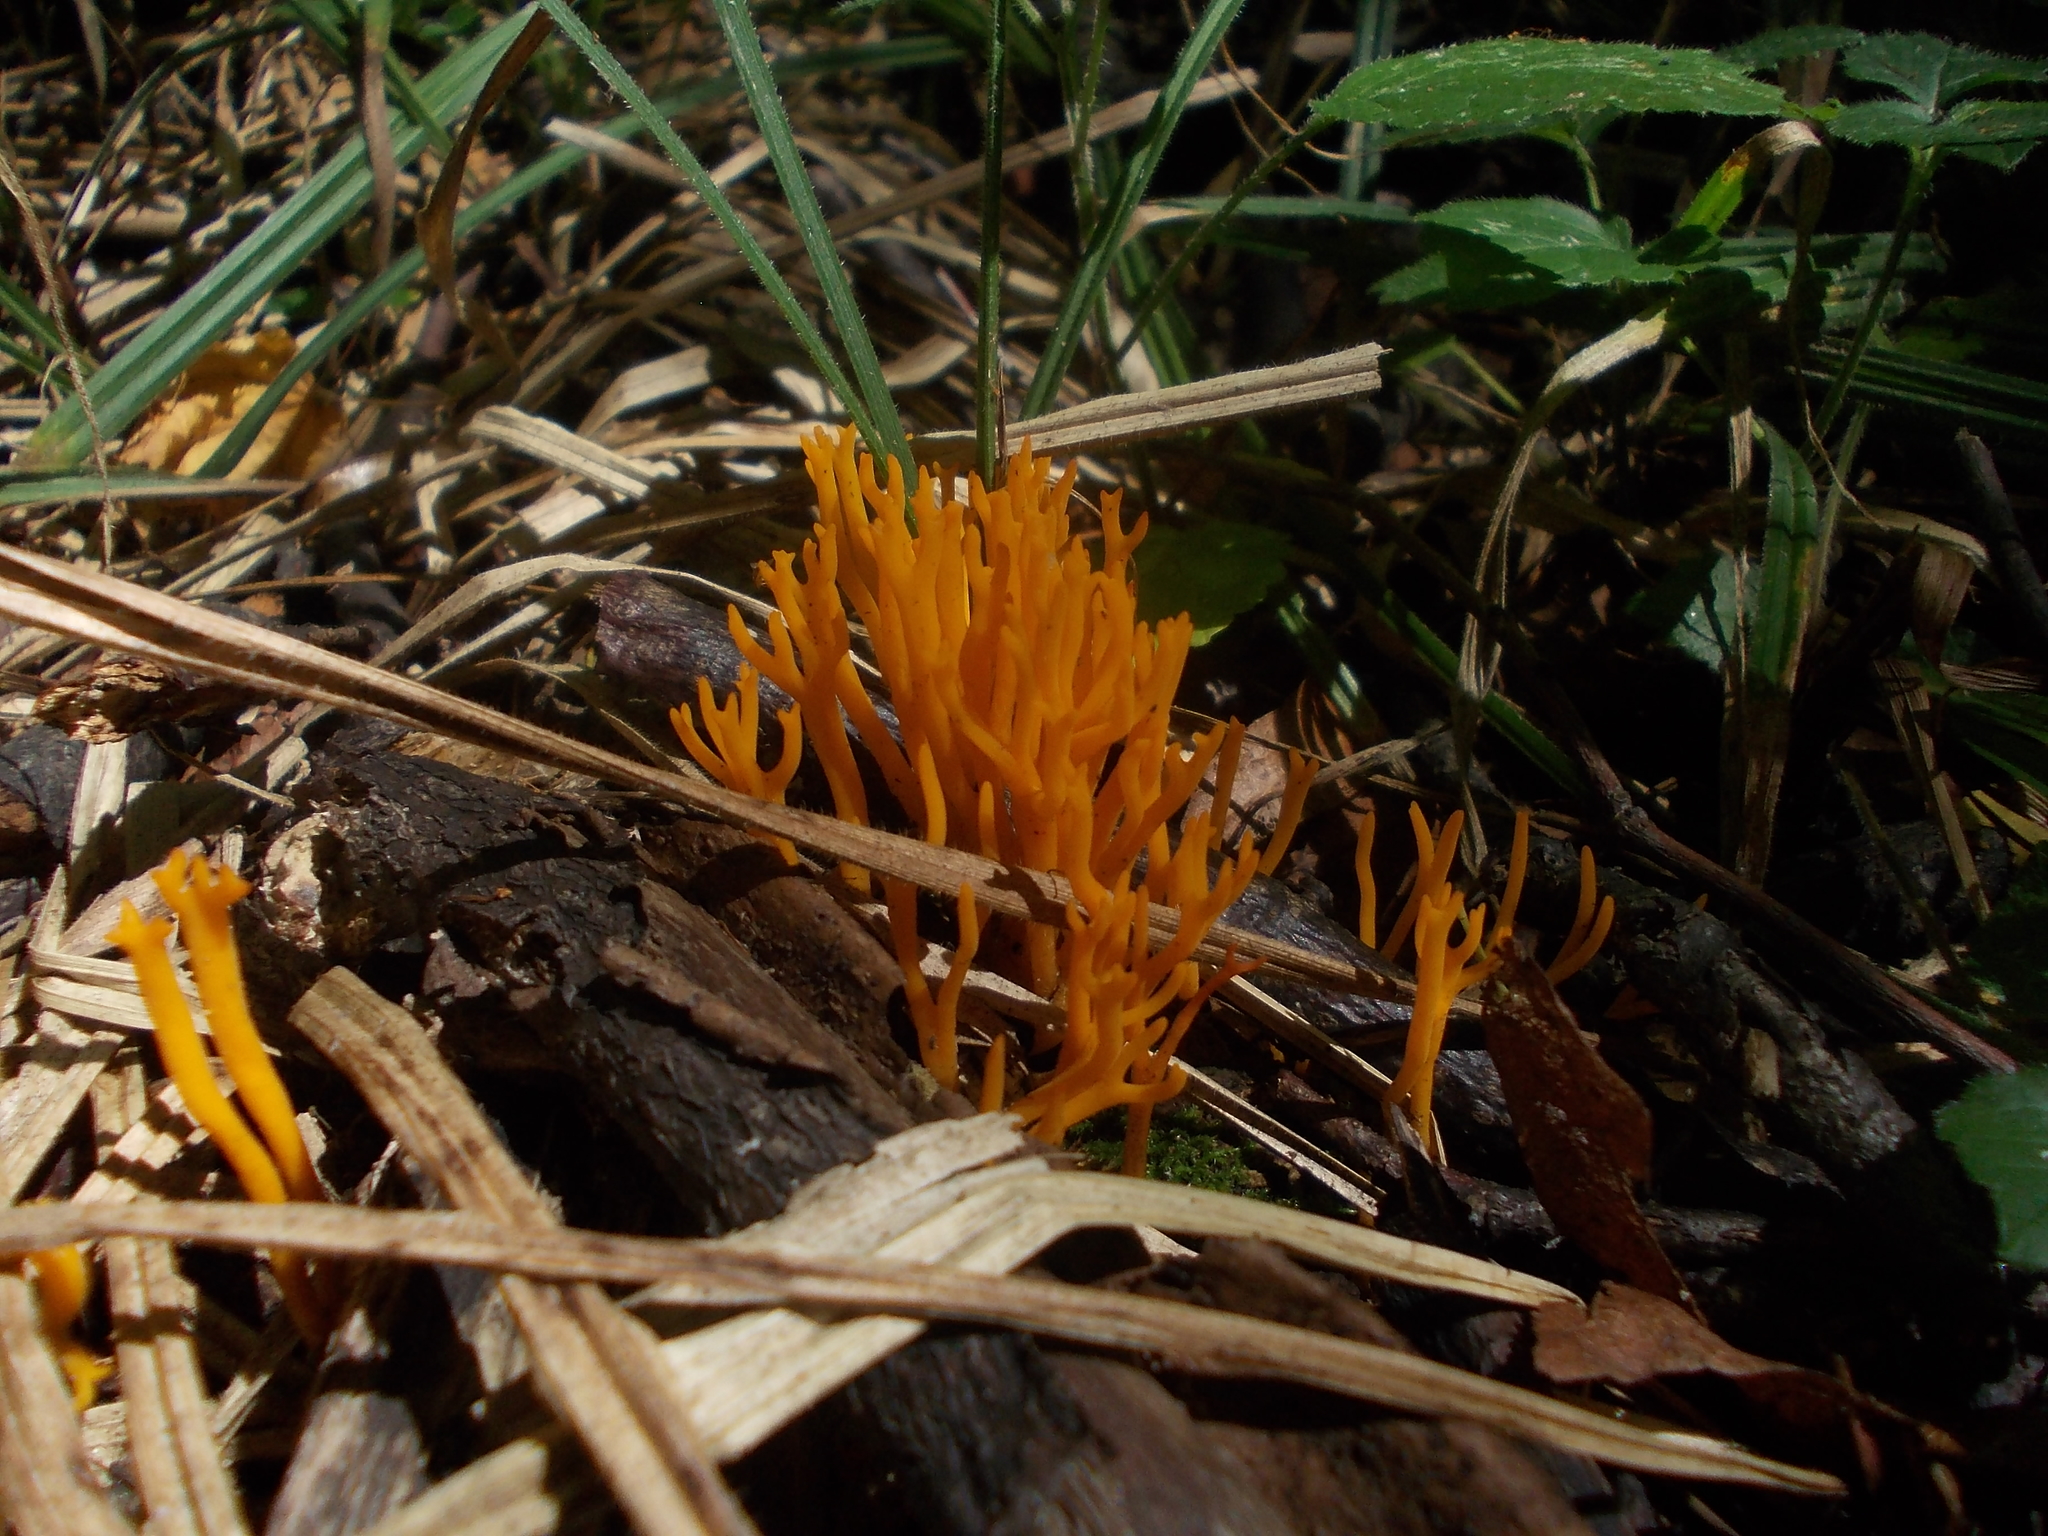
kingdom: Fungi
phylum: Basidiomycota
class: Dacrymycetes
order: Dacrymycetales
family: Dacrymycetaceae
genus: Calocera
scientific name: Calocera viscosa
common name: Yellow stagshorn
